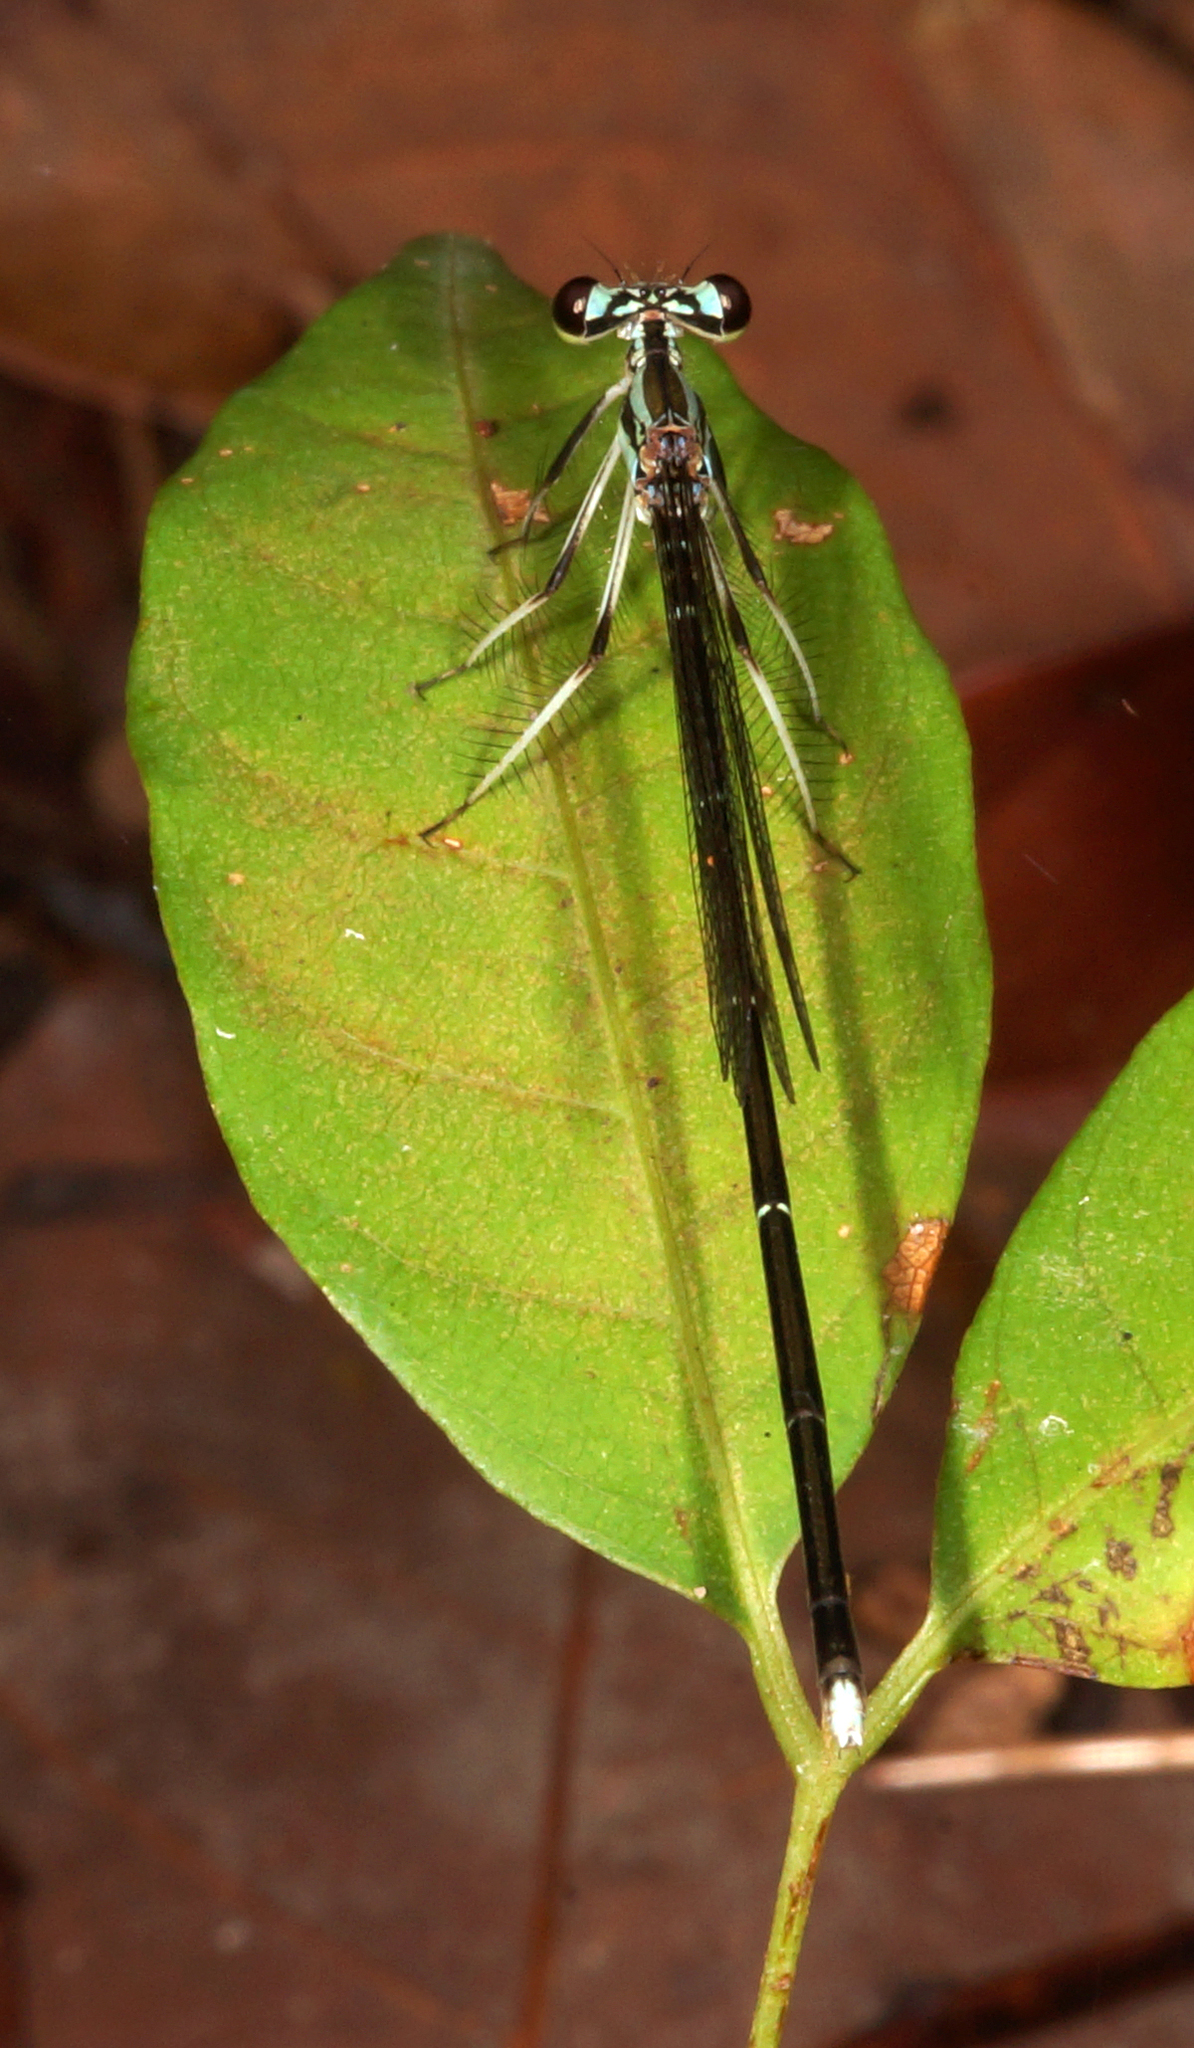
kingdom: Animalia
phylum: Arthropoda
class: Insecta
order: Odonata
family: Platycnemididae
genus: Pseudocopera
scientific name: Pseudocopera ciliata
